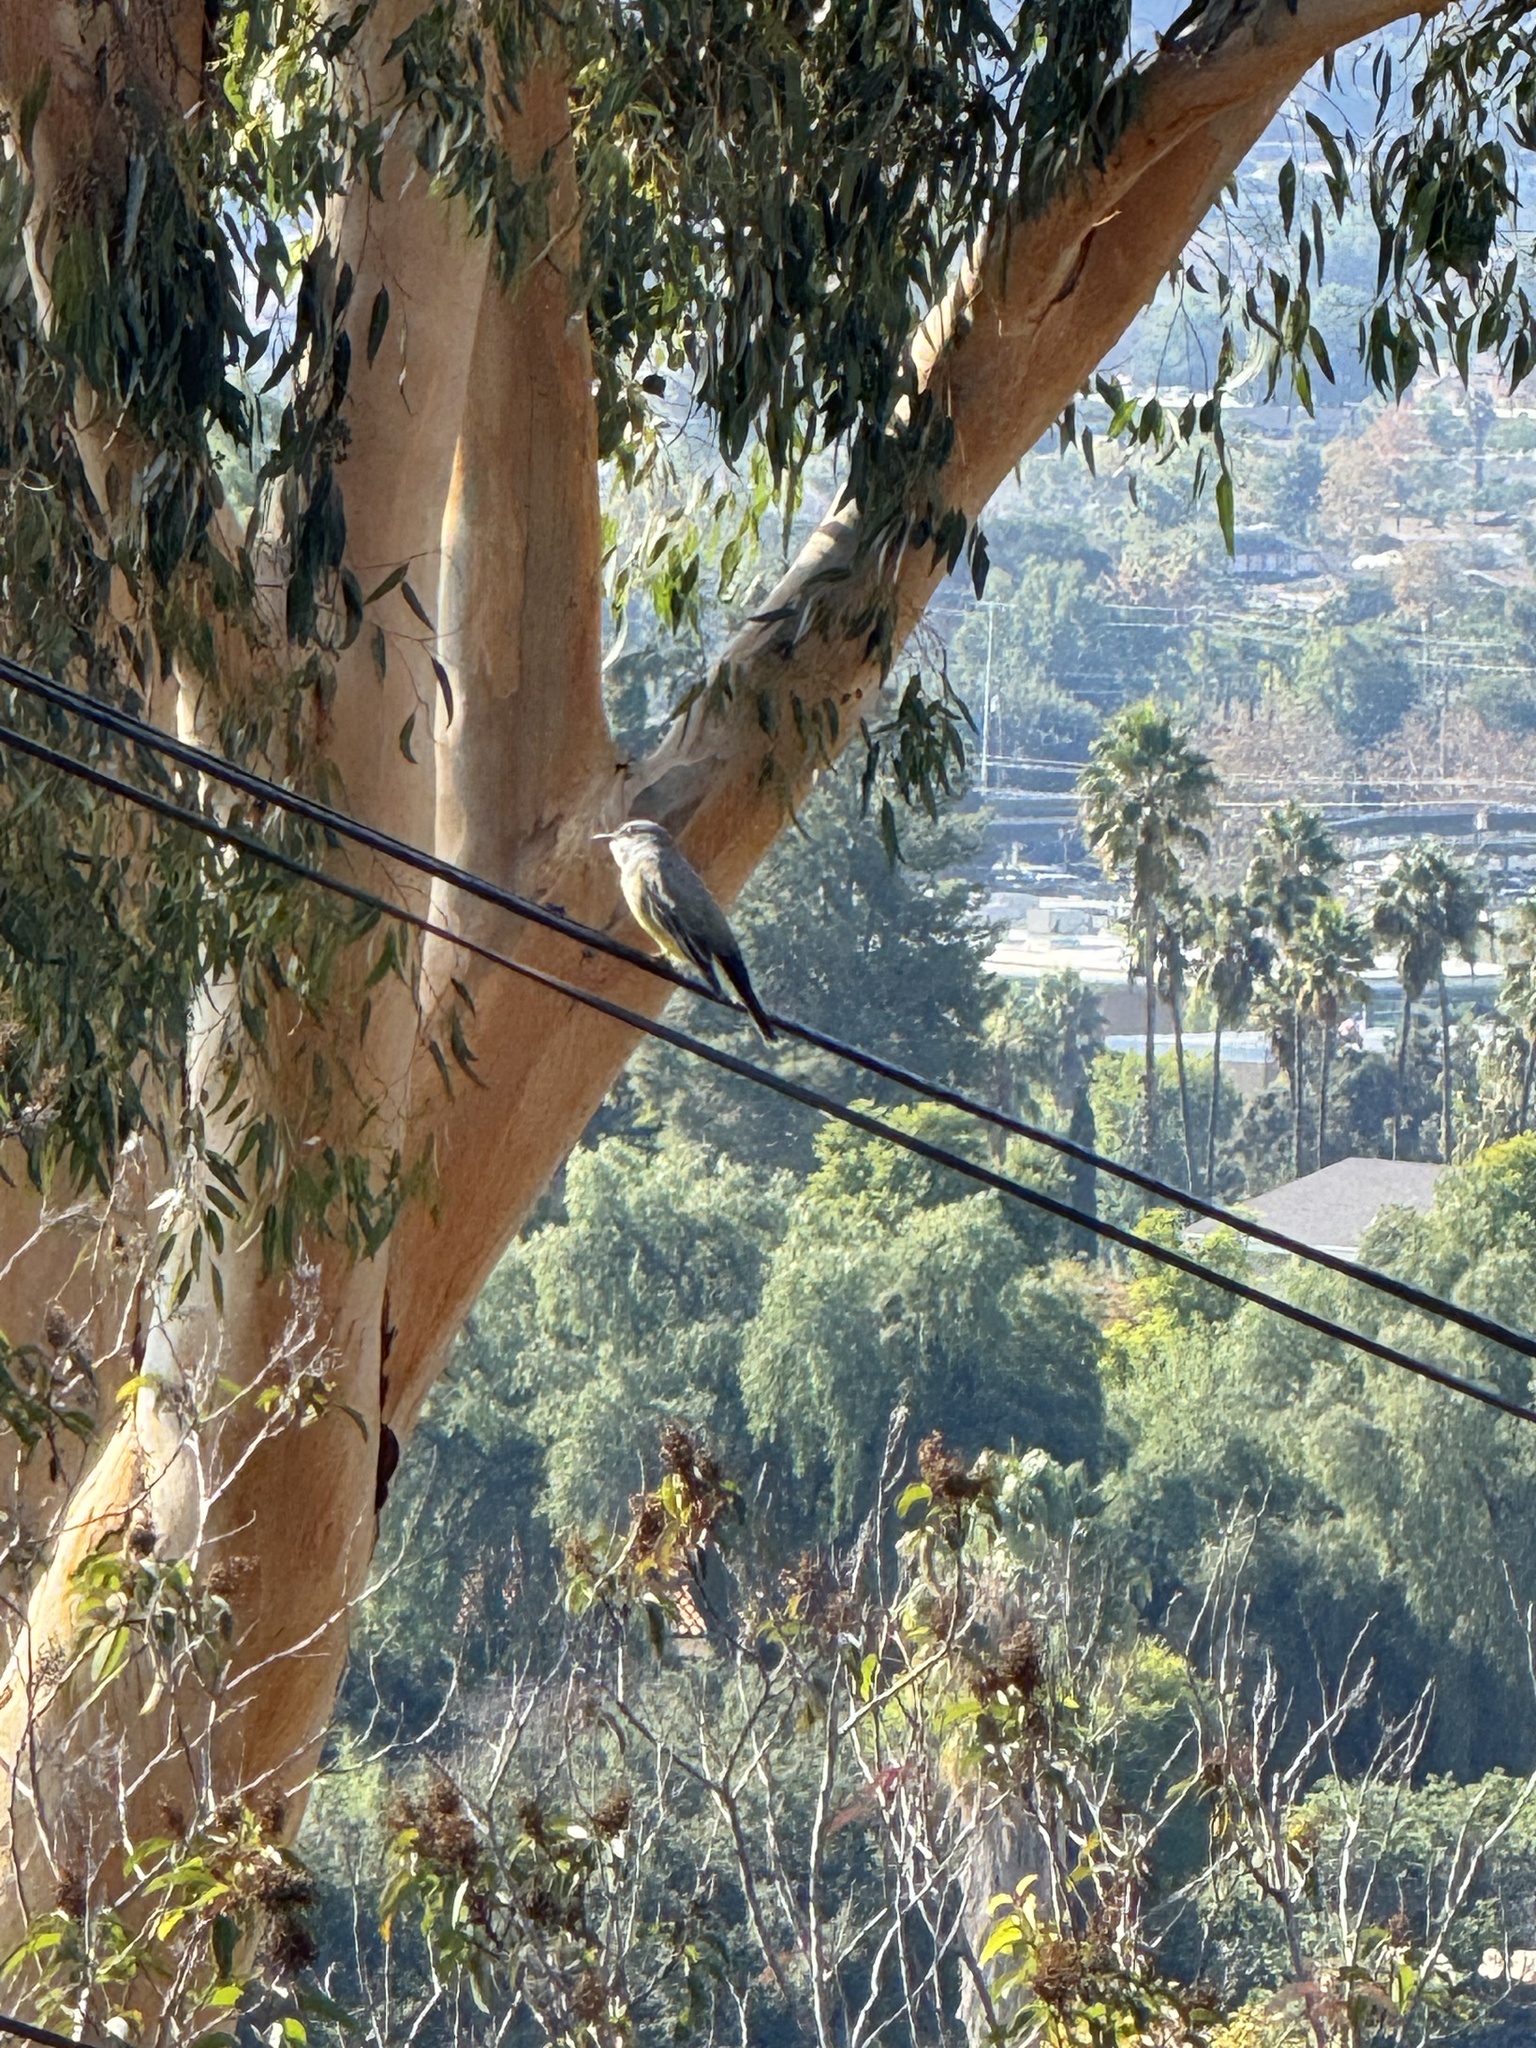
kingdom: Animalia
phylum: Chordata
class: Aves
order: Passeriformes
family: Tyrannidae
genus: Tyrannus
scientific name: Tyrannus vociferans
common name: Cassin's kingbird
